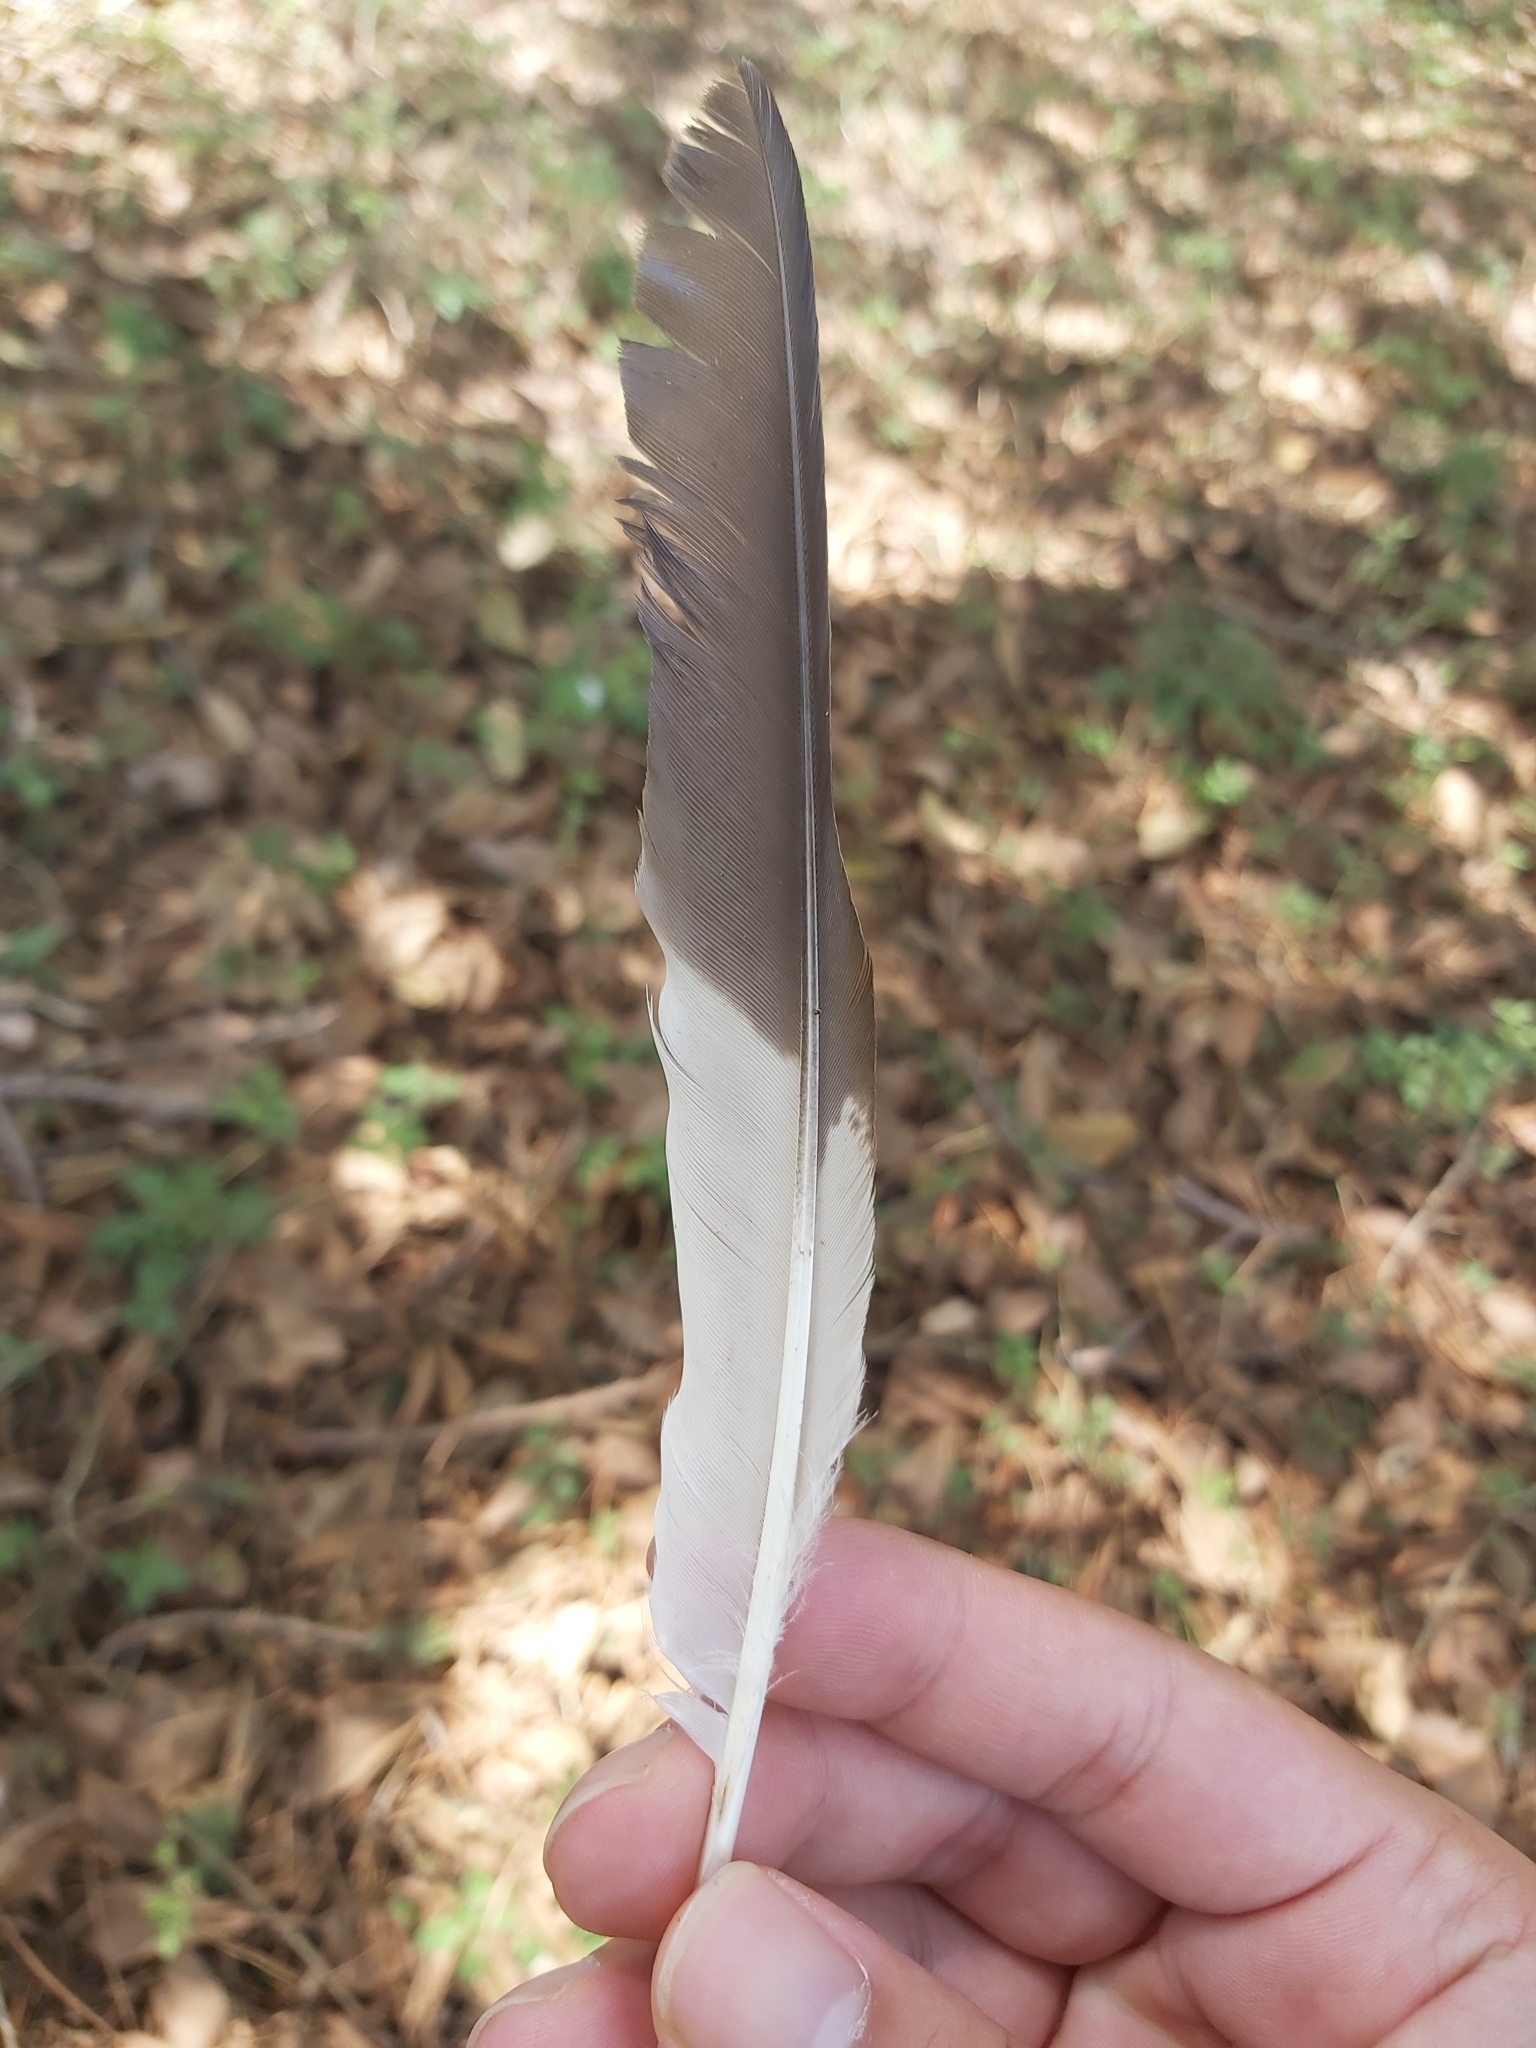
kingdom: Animalia
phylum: Chordata
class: Aves
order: Coraciiformes
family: Alcedinidae
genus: Dacelo
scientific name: Dacelo novaeguineae
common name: Laughing kookaburra
